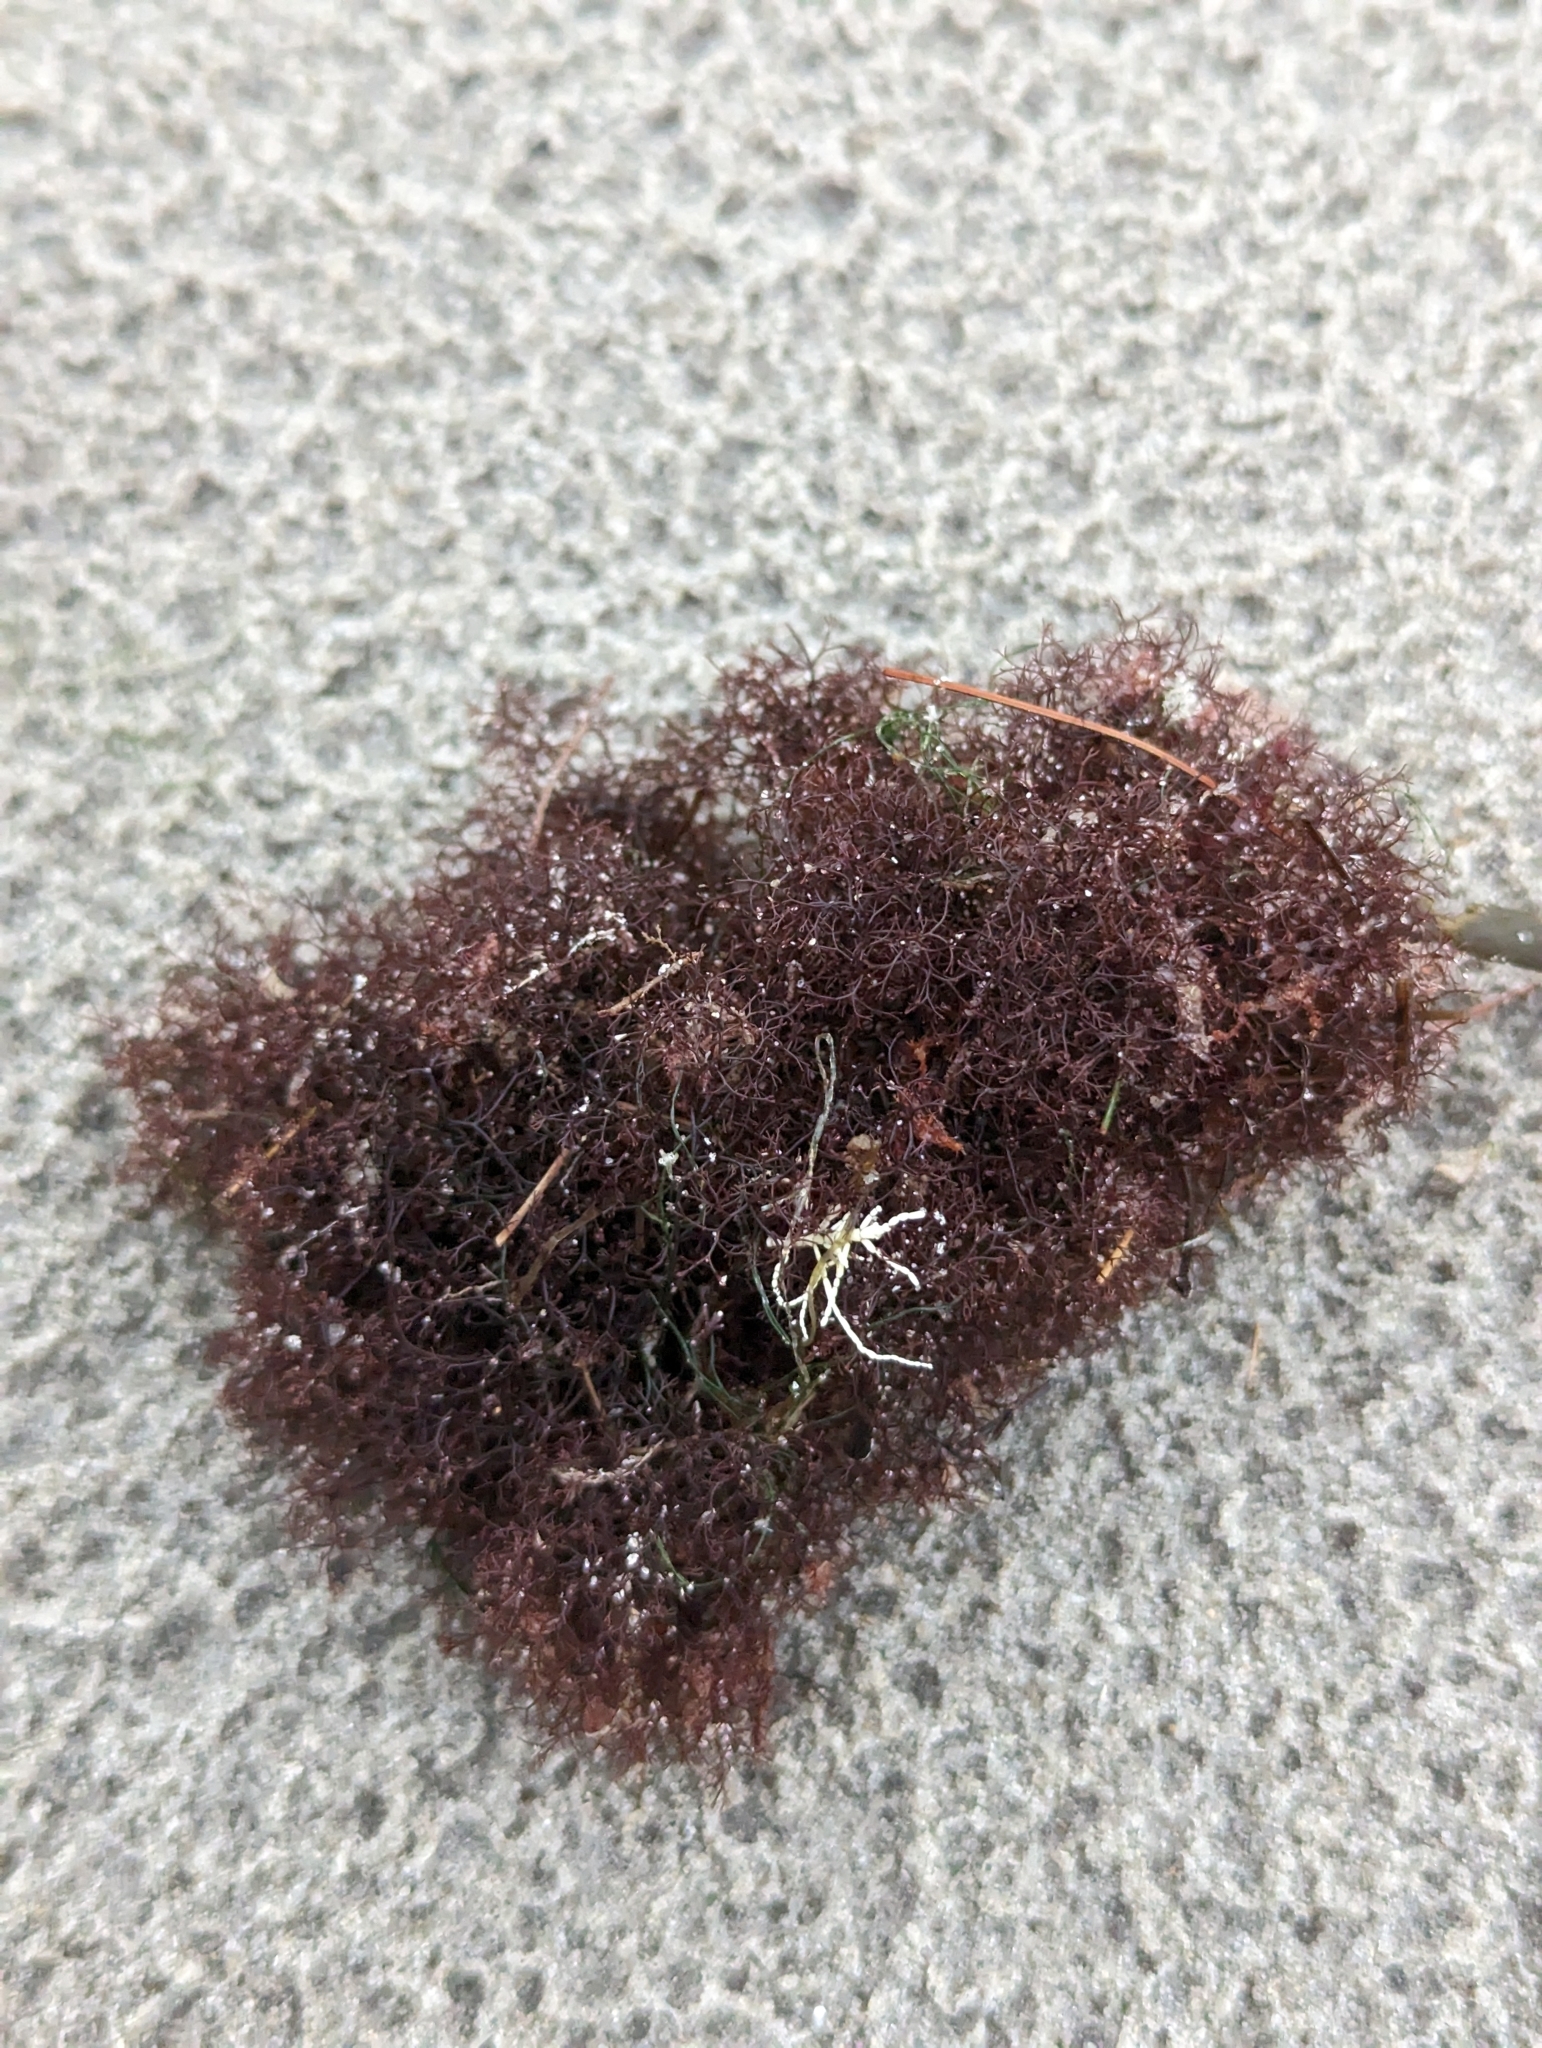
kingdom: Plantae
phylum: Rhodophyta
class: Florideophyceae
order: Ceramiales
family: Rhodomelaceae
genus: Vertebrata
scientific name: Vertebrata lanosa
